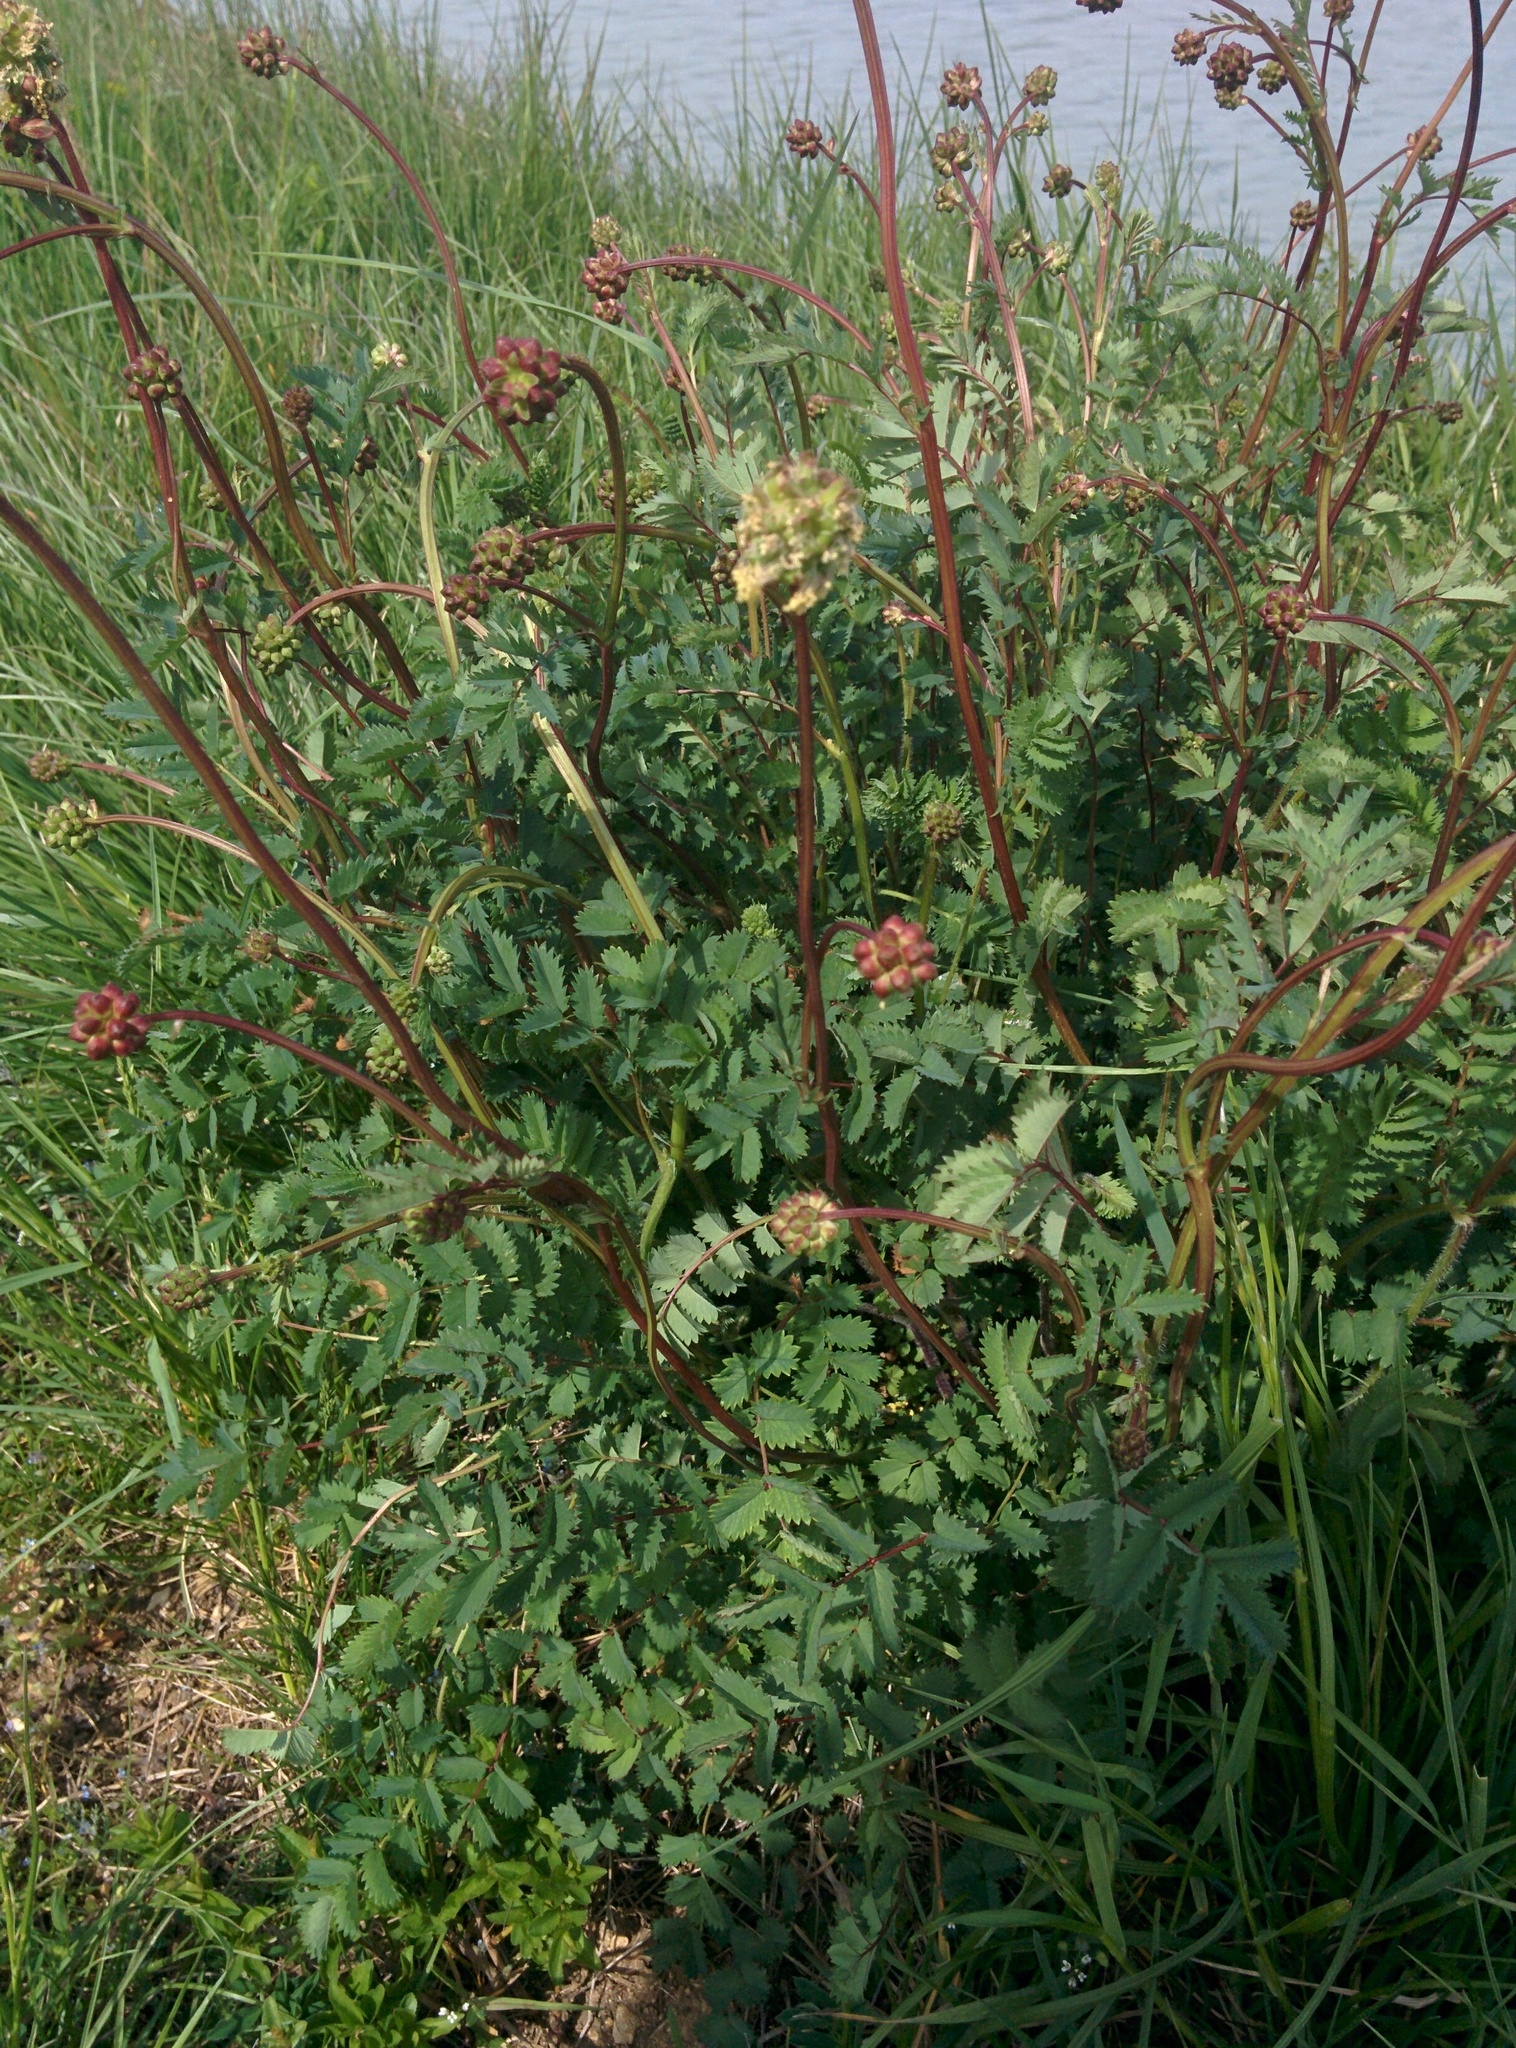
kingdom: Plantae
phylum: Tracheophyta
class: Magnoliopsida
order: Rosales
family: Rosaceae
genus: Poterium
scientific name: Poterium sanguisorba
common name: Salad burnet
